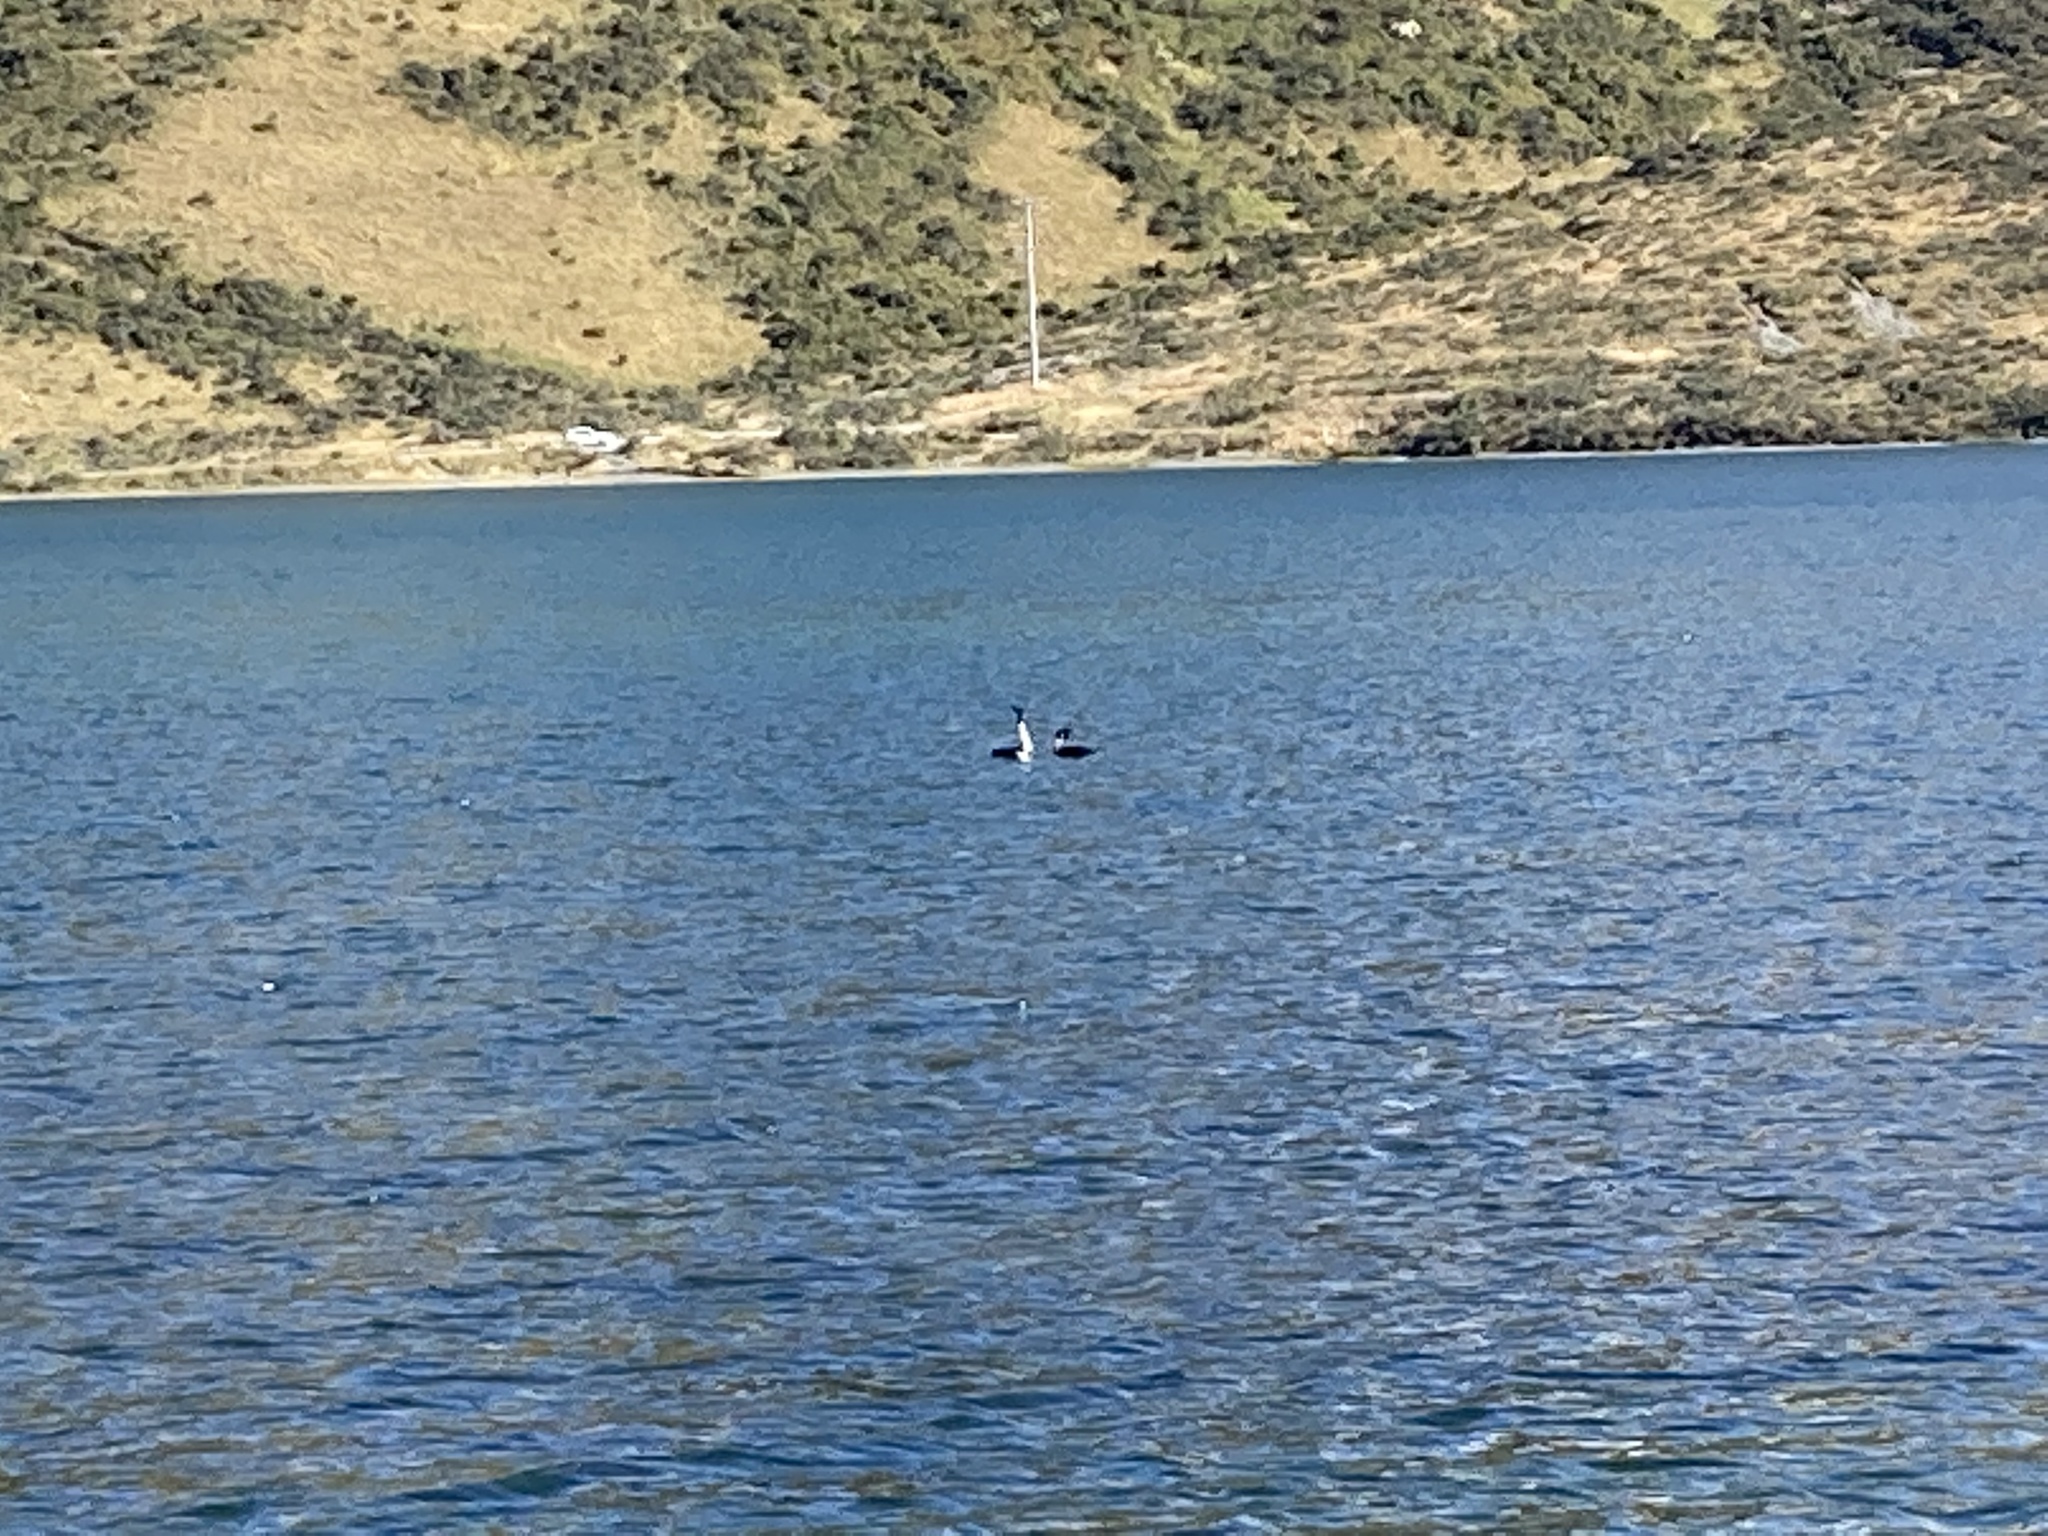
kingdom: Animalia
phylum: Chordata
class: Aves
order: Podicipediformes
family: Podicipedidae
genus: Podiceps
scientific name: Podiceps cristatus
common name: Great crested grebe
